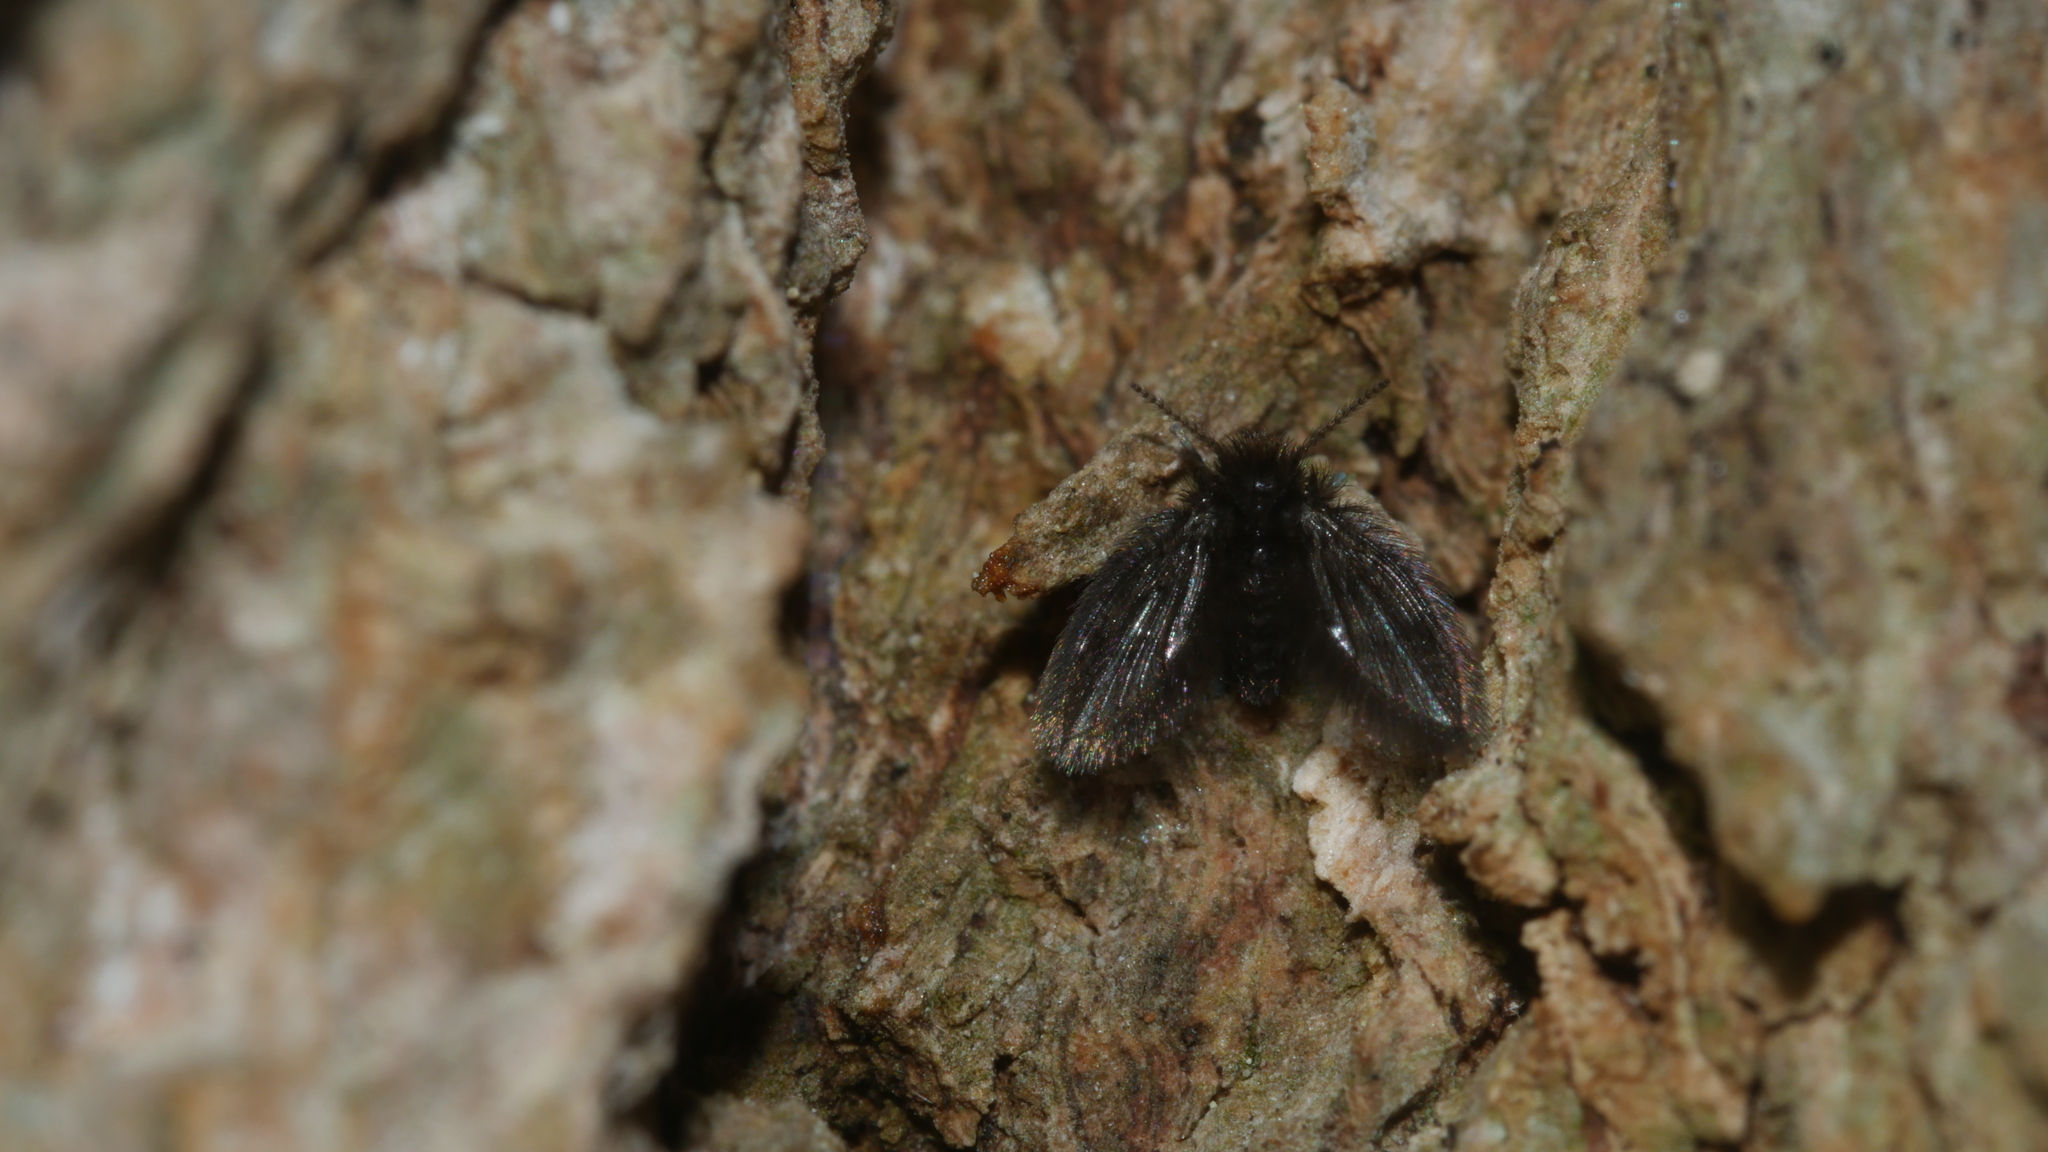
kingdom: Animalia
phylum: Arthropoda
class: Insecta
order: Diptera
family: Psychodidae
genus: Lepiseodina
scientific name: Lepiseodina
